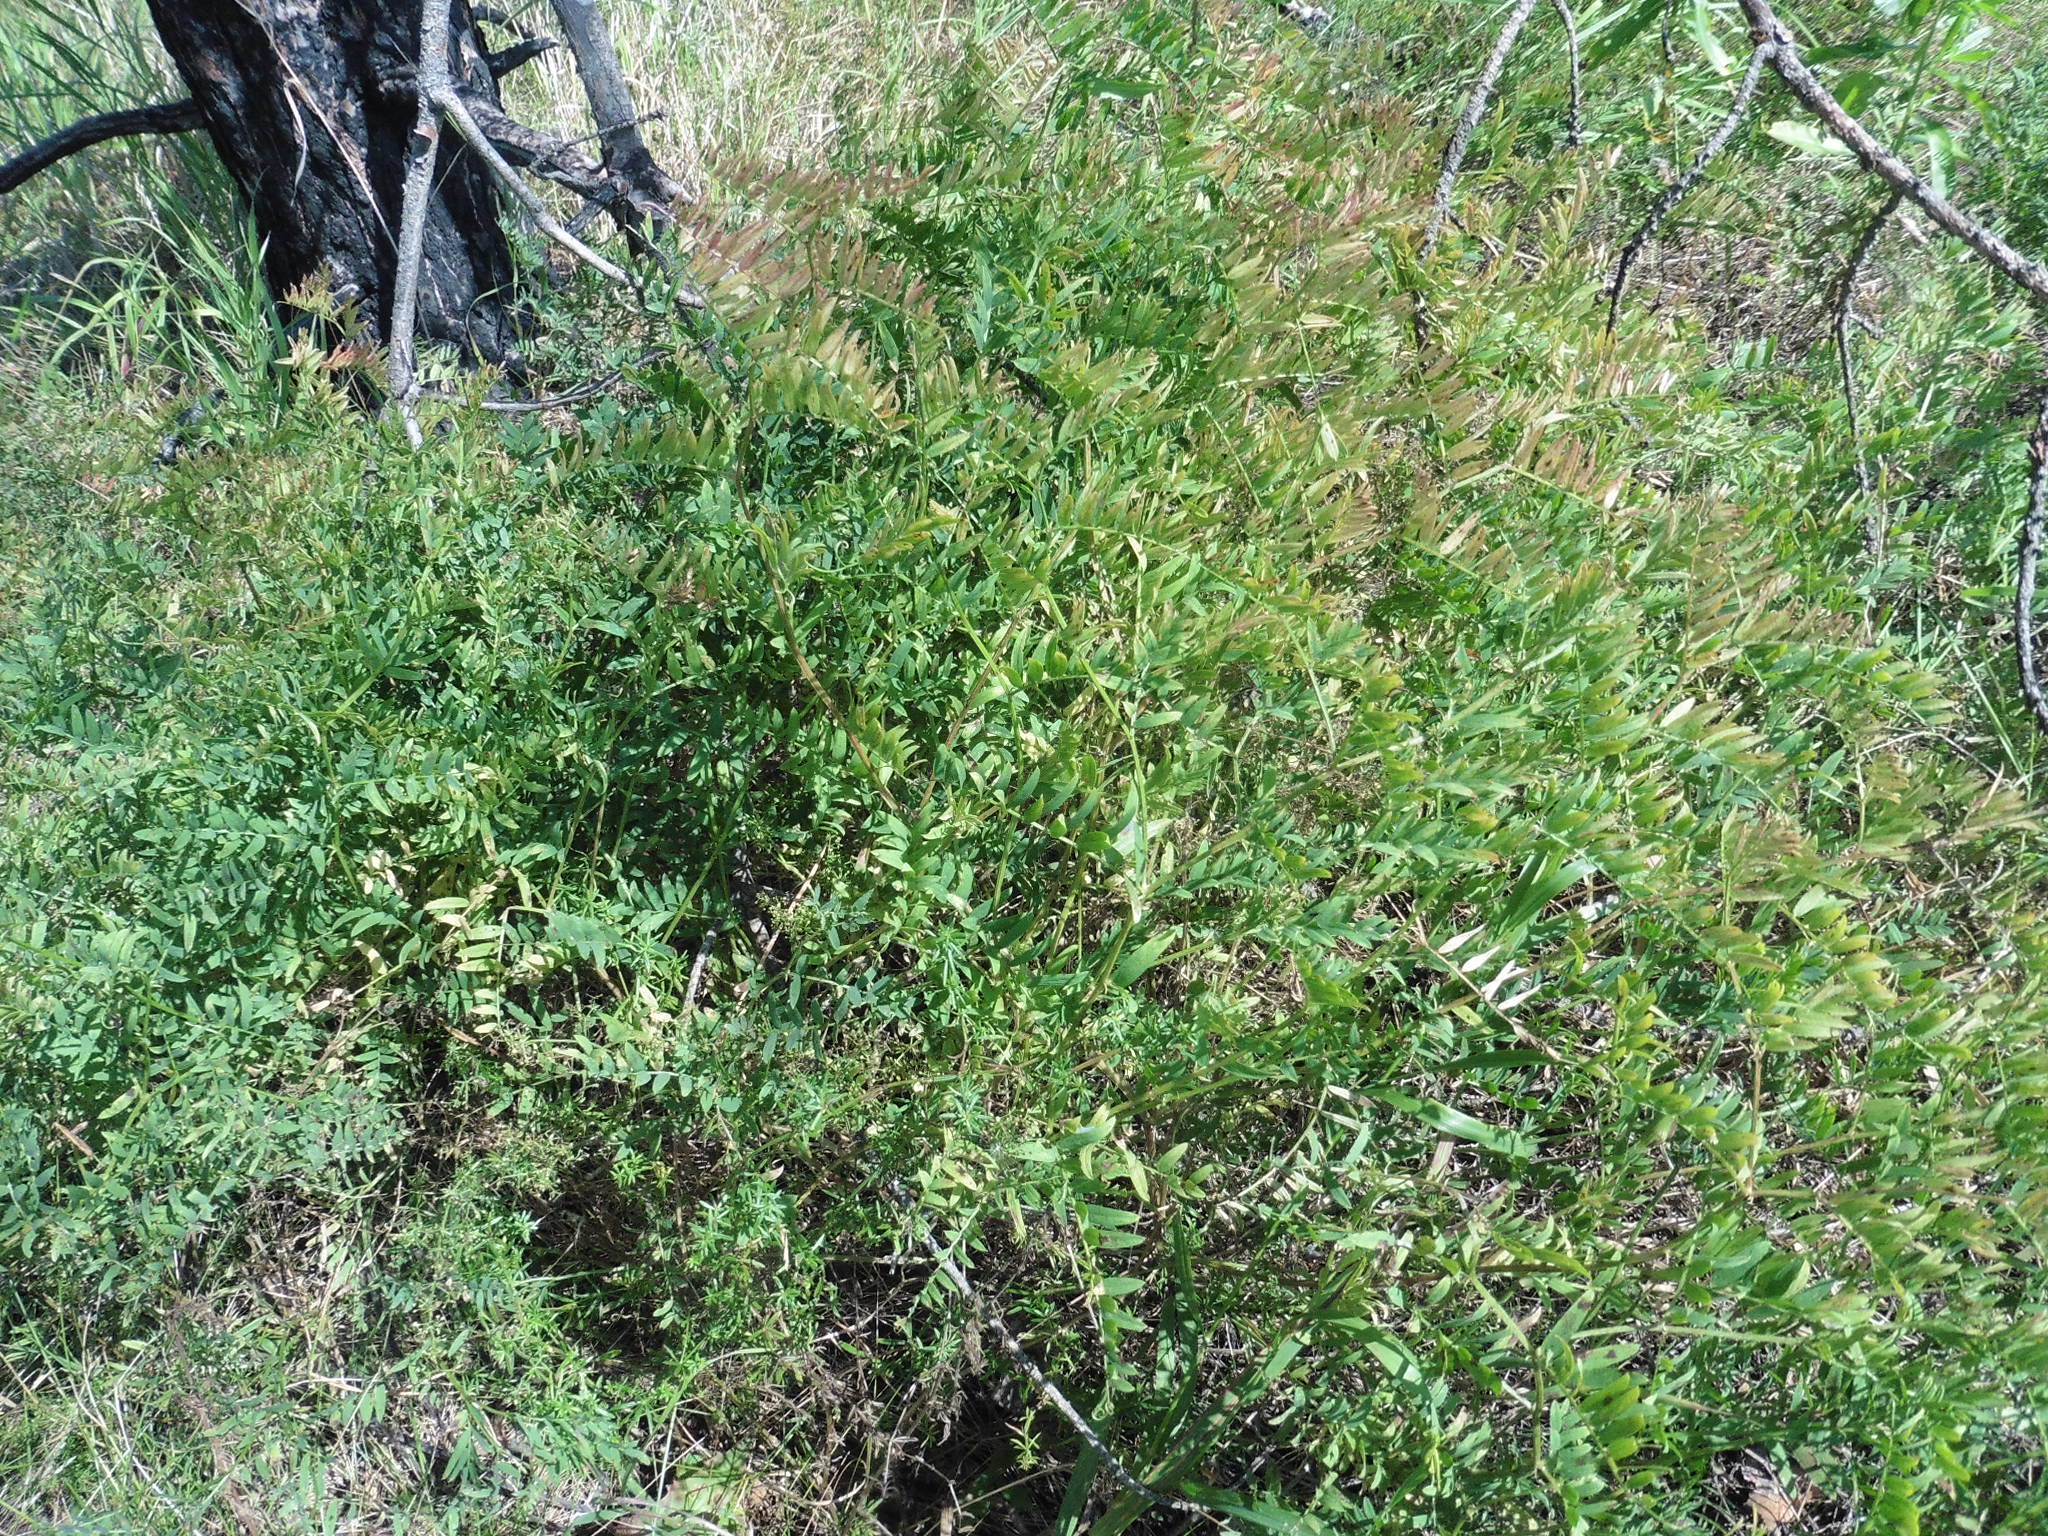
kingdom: Plantae
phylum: Tracheophyta
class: Magnoliopsida
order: Fabales
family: Fabaceae
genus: Vicia
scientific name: Vicia tenuifolia
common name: Fine-leaved vetch
